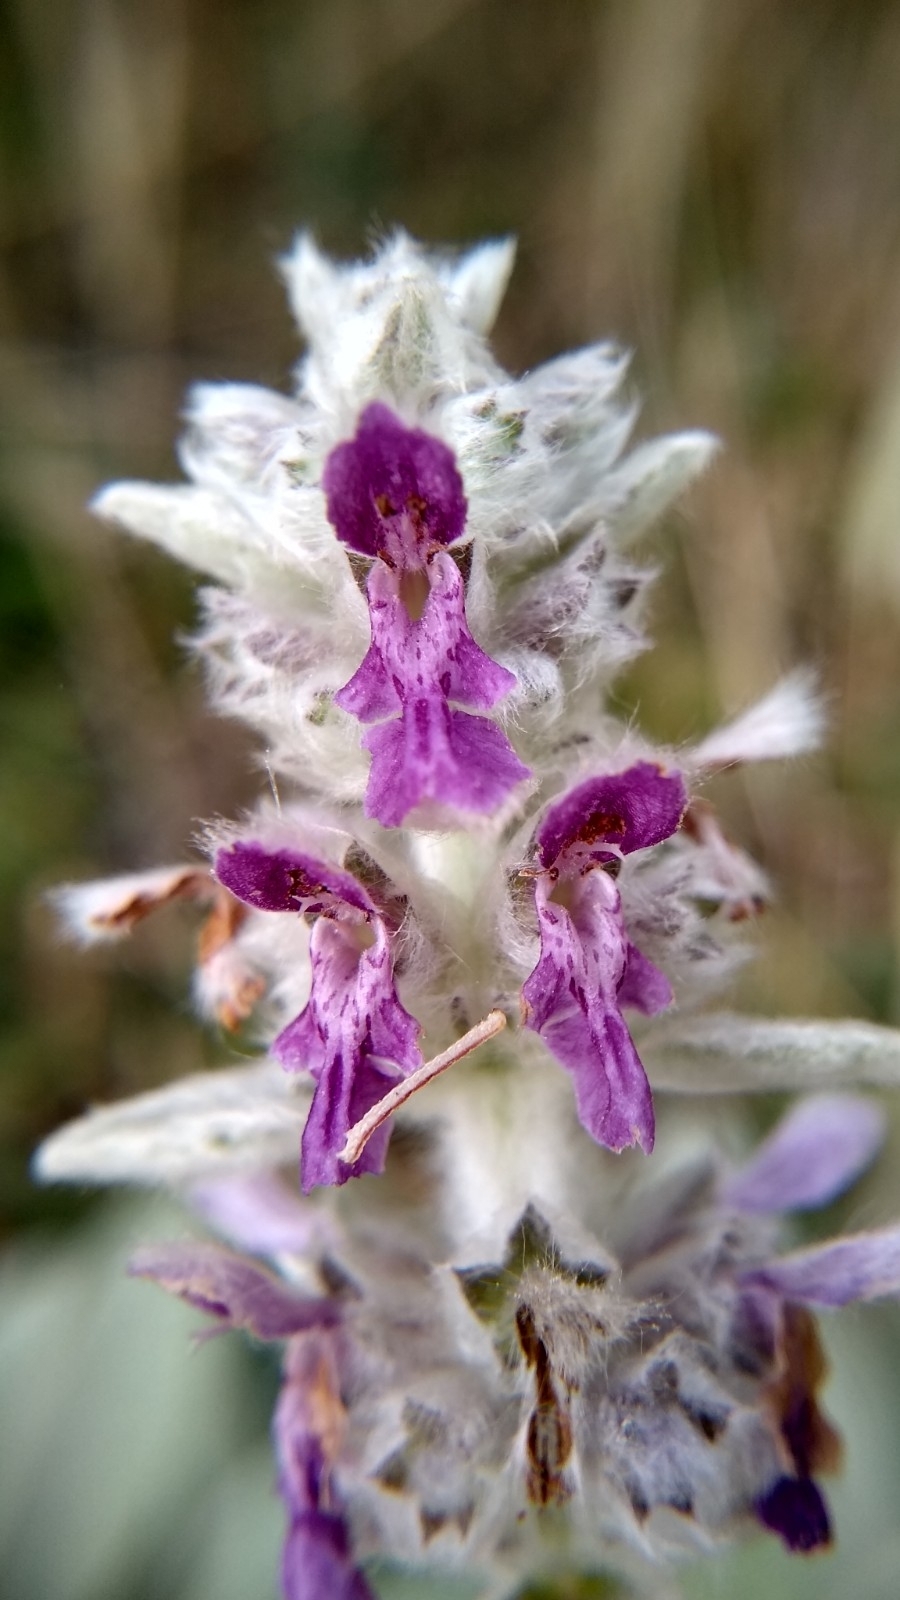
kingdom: Plantae
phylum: Tracheophyta
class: Magnoliopsida
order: Lamiales
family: Lamiaceae
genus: Stachys
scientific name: Stachys byzantina
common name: Lamb's-ear
